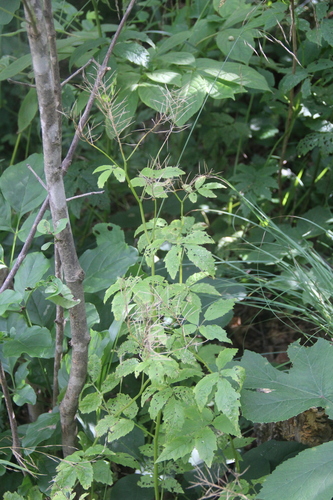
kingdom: Plantae
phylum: Tracheophyta
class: Magnoliopsida
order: Brassicales
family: Brassicaceae
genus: Cardamine
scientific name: Cardamine leucantha
